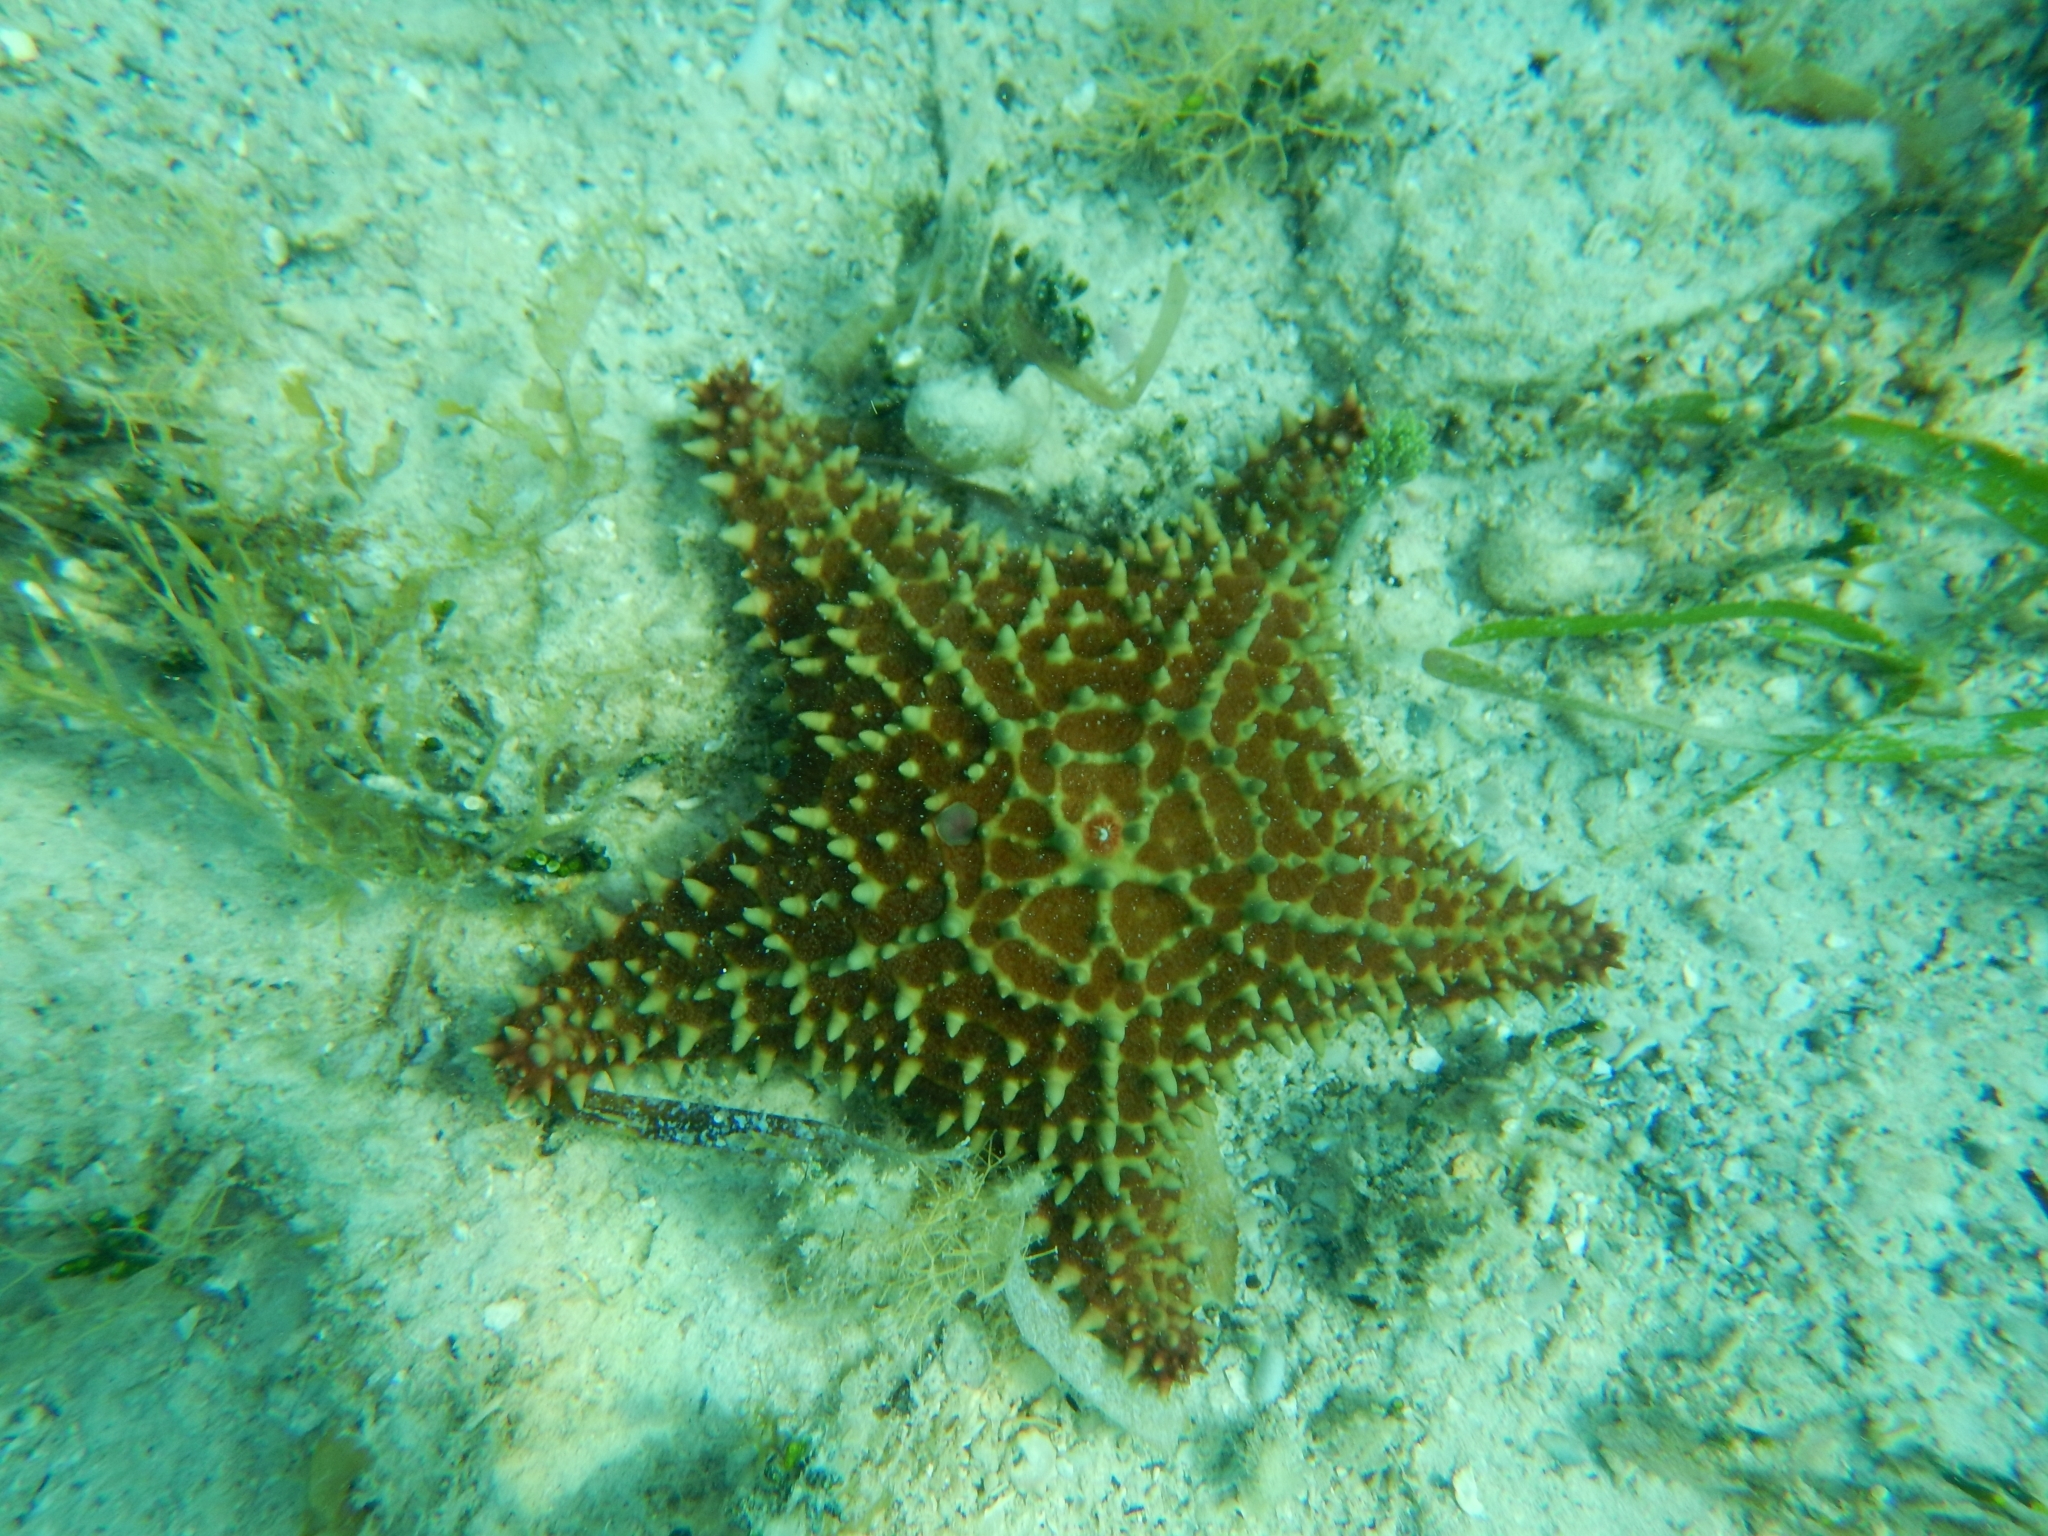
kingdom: Animalia
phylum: Echinodermata
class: Asteroidea
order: Valvatida
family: Oreasteridae
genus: Oreaster
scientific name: Oreaster reticulatus
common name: Cushion sea star
